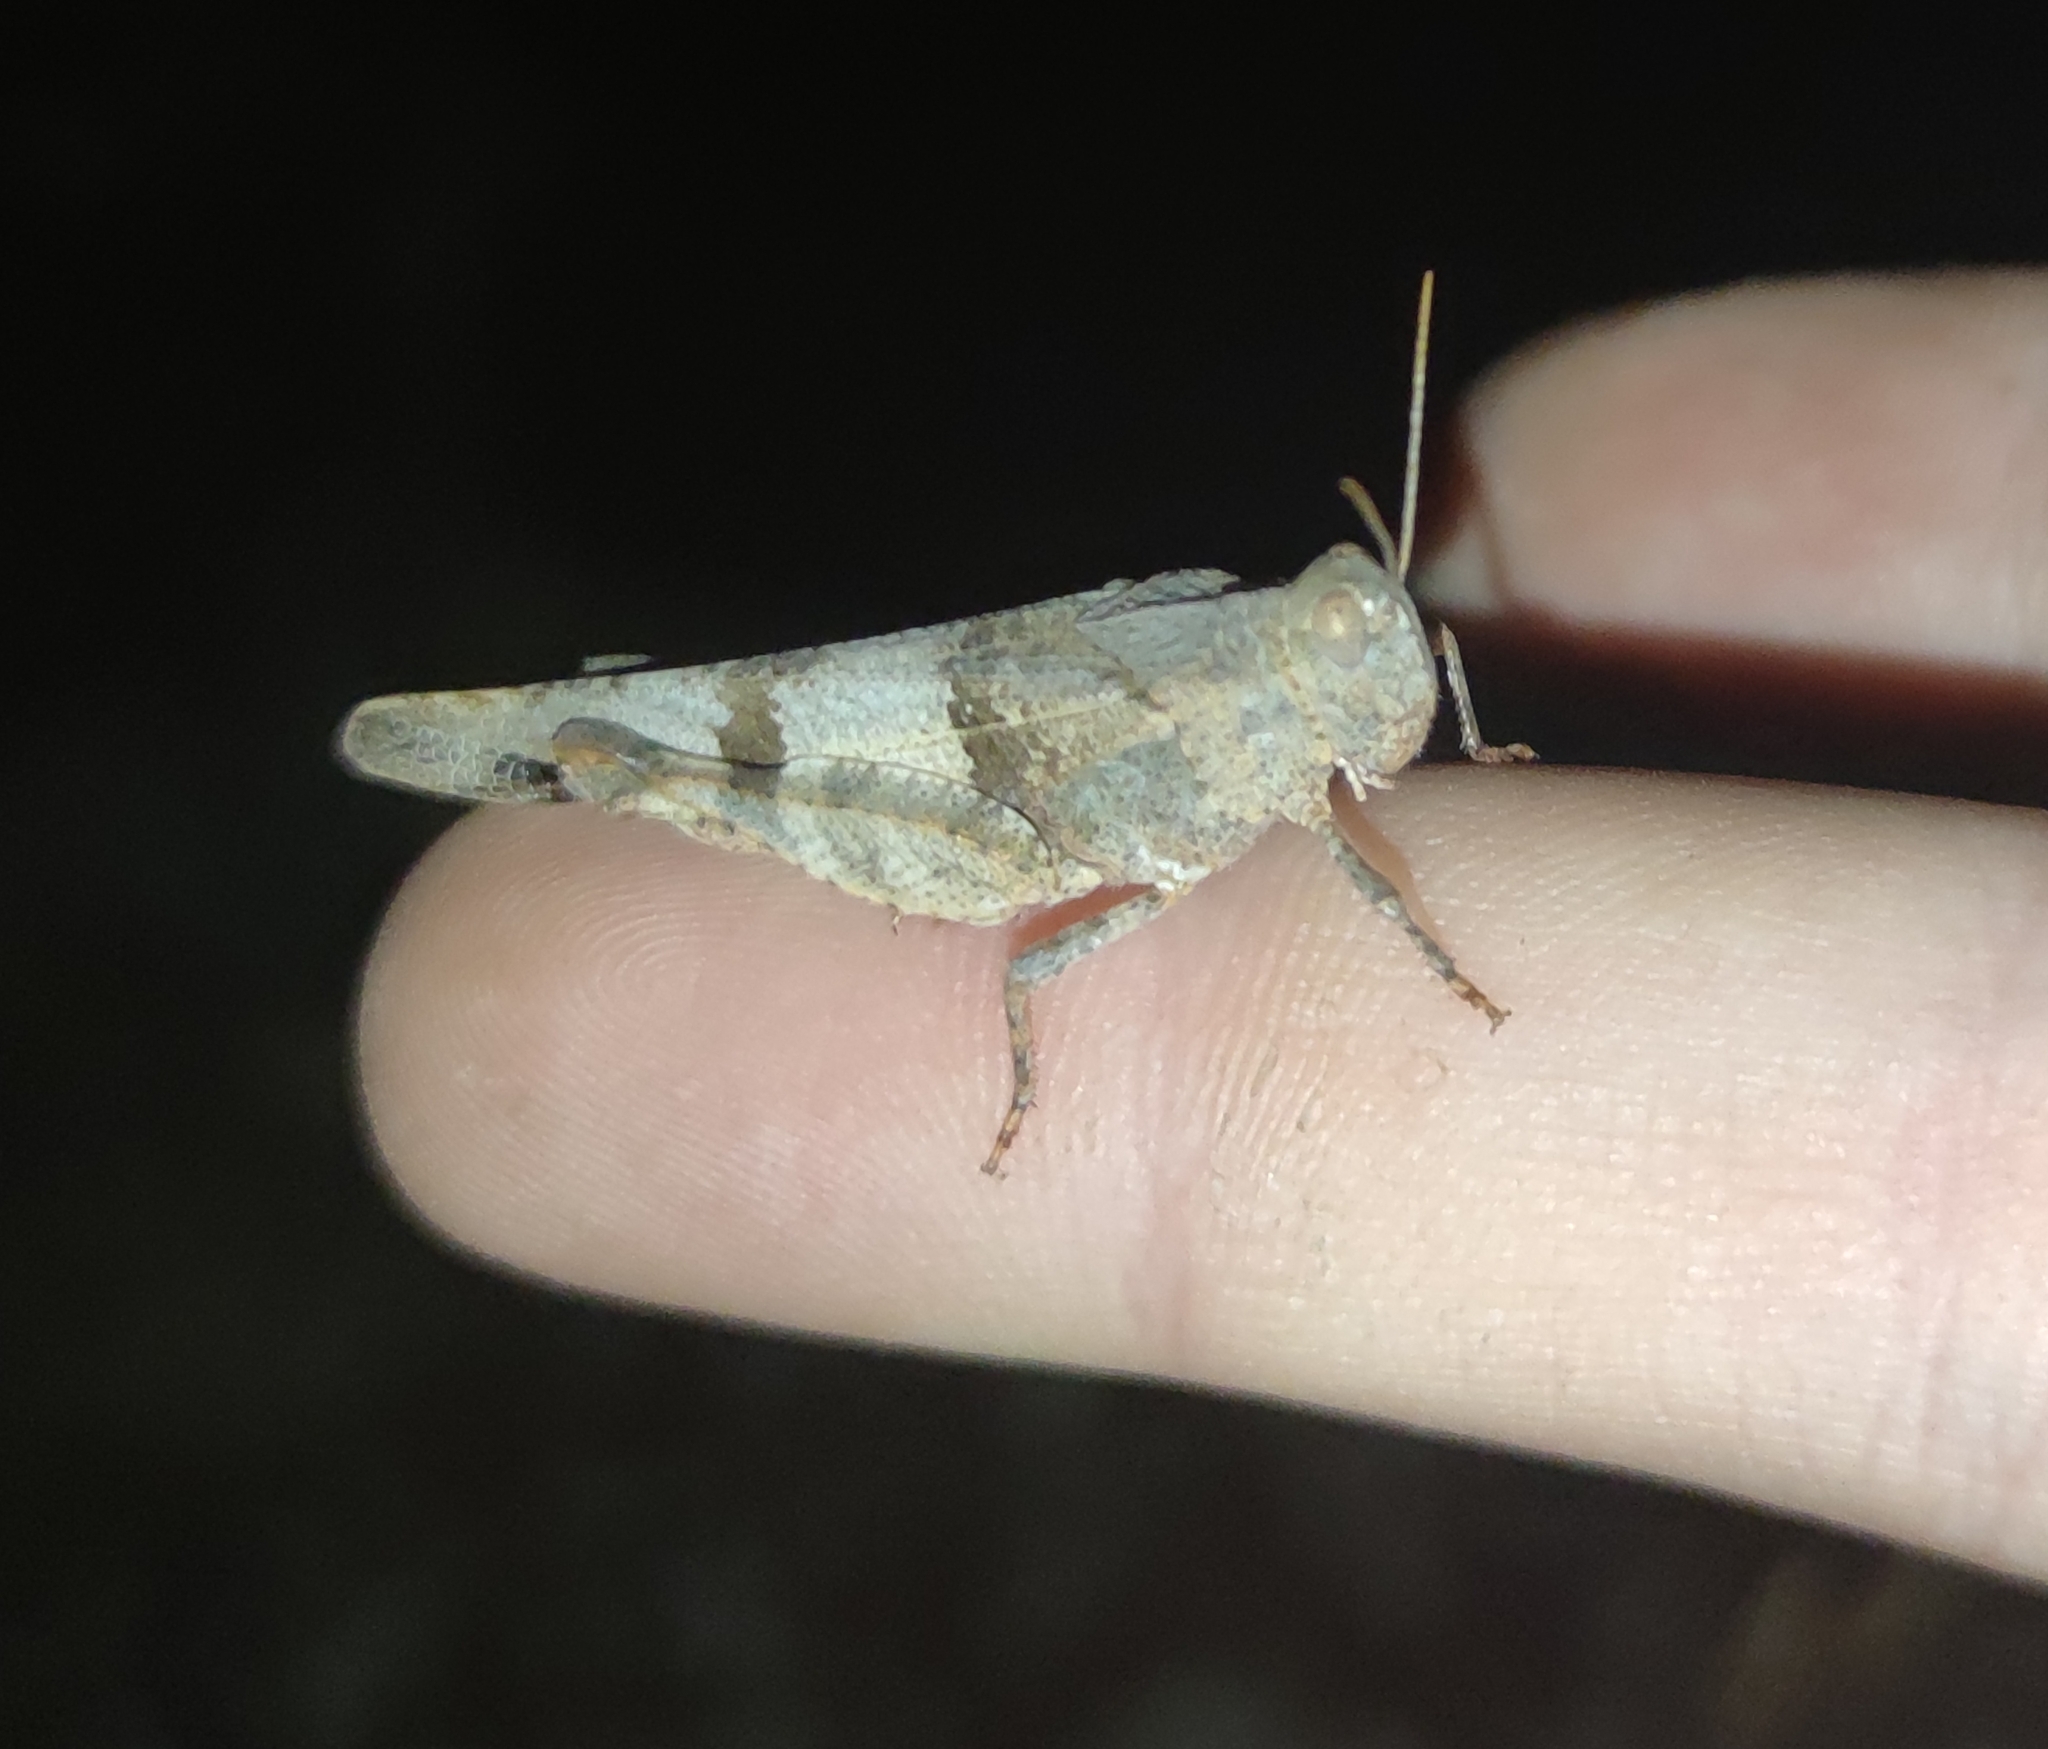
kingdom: Animalia
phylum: Arthropoda
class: Insecta
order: Orthoptera
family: Acrididae
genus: Oedipoda
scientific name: Oedipoda caerulescens
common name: Blue-winged grasshopper
